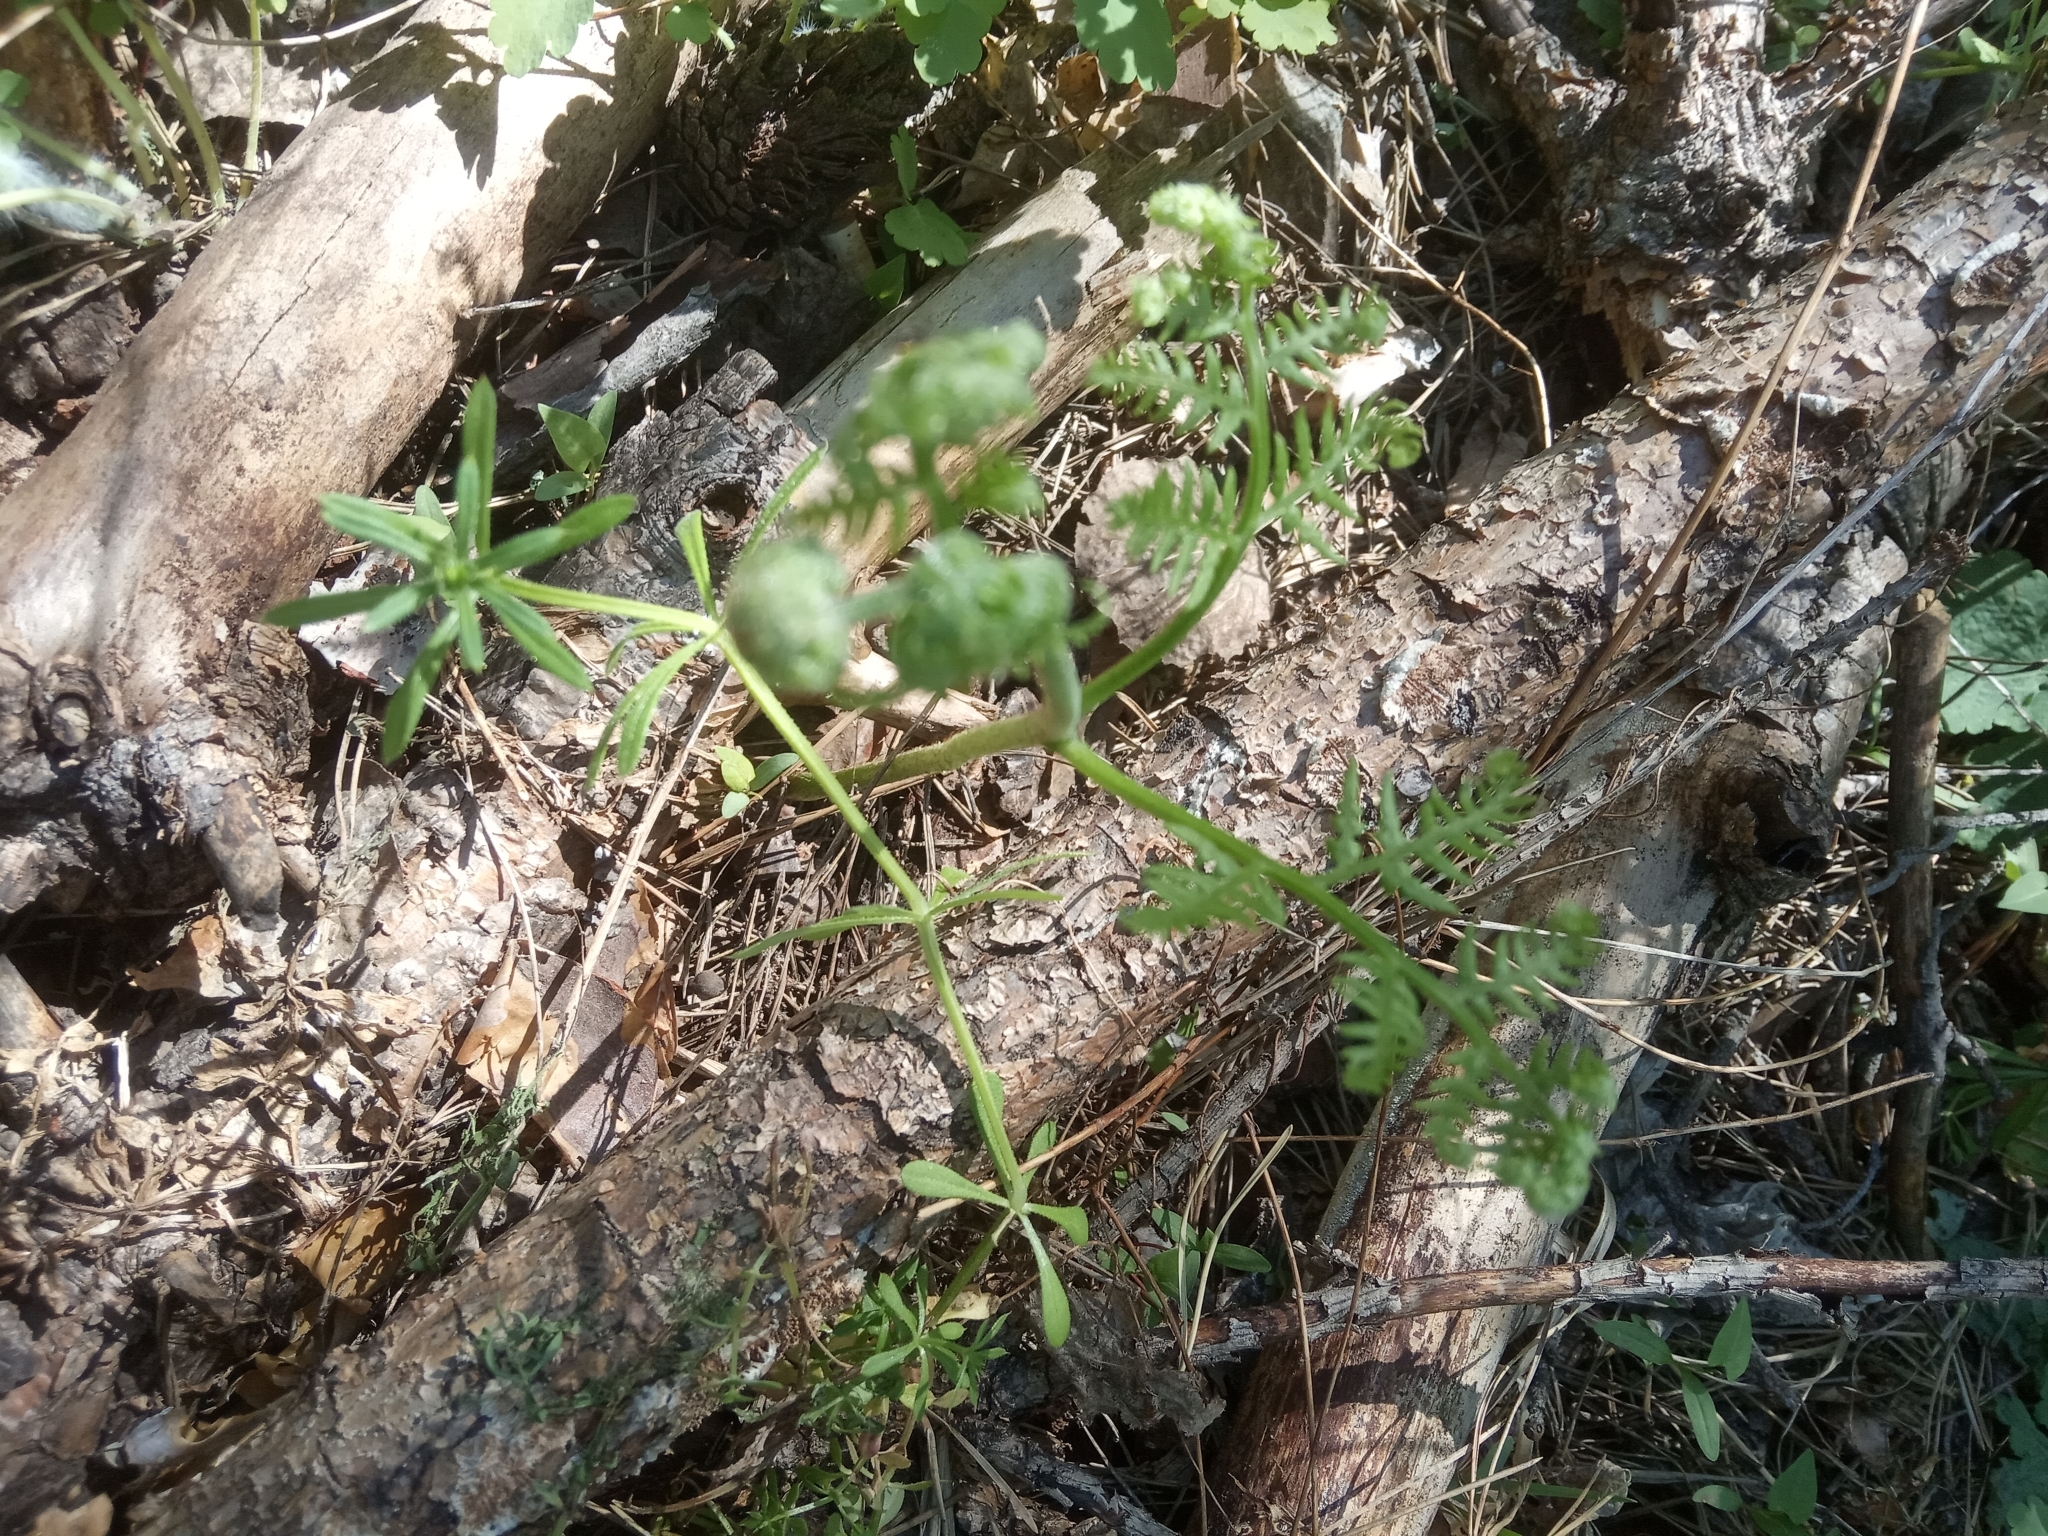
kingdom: Plantae
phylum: Tracheophyta
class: Polypodiopsida
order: Polypodiales
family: Dennstaedtiaceae
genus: Pteridium
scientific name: Pteridium aquilinum
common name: Bracken
